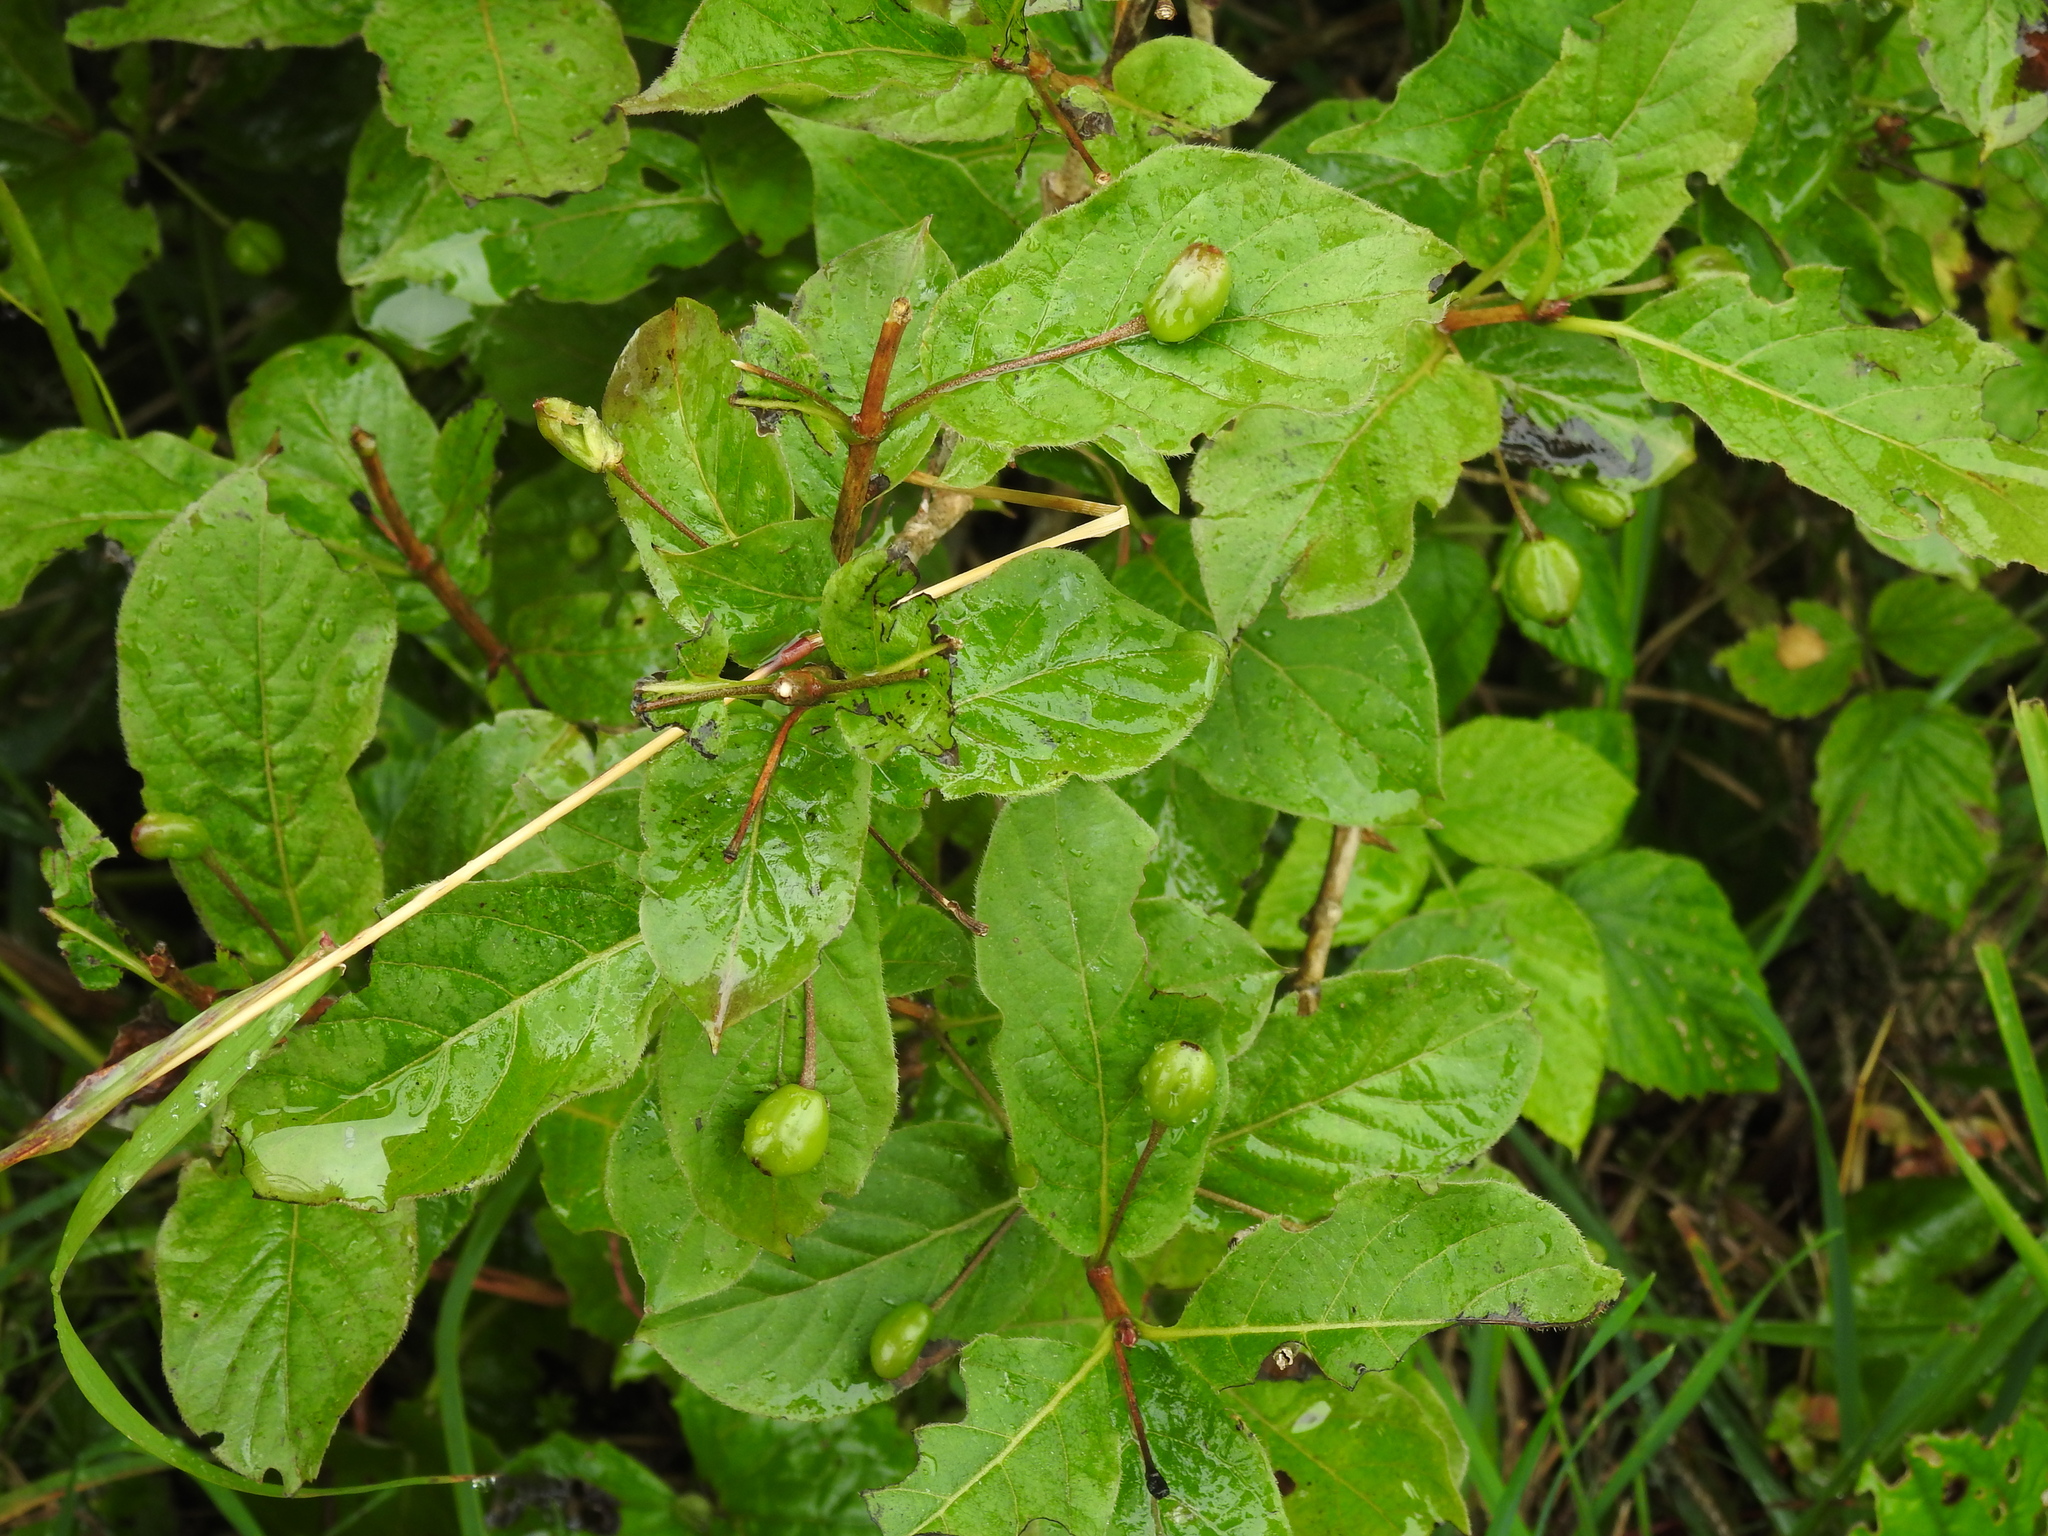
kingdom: Plantae
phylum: Tracheophyta
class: Magnoliopsida
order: Dipsacales
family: Caprifoliaceae
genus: Lonicera
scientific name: Lonicera alpigena
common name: Alpine honeysuckle
